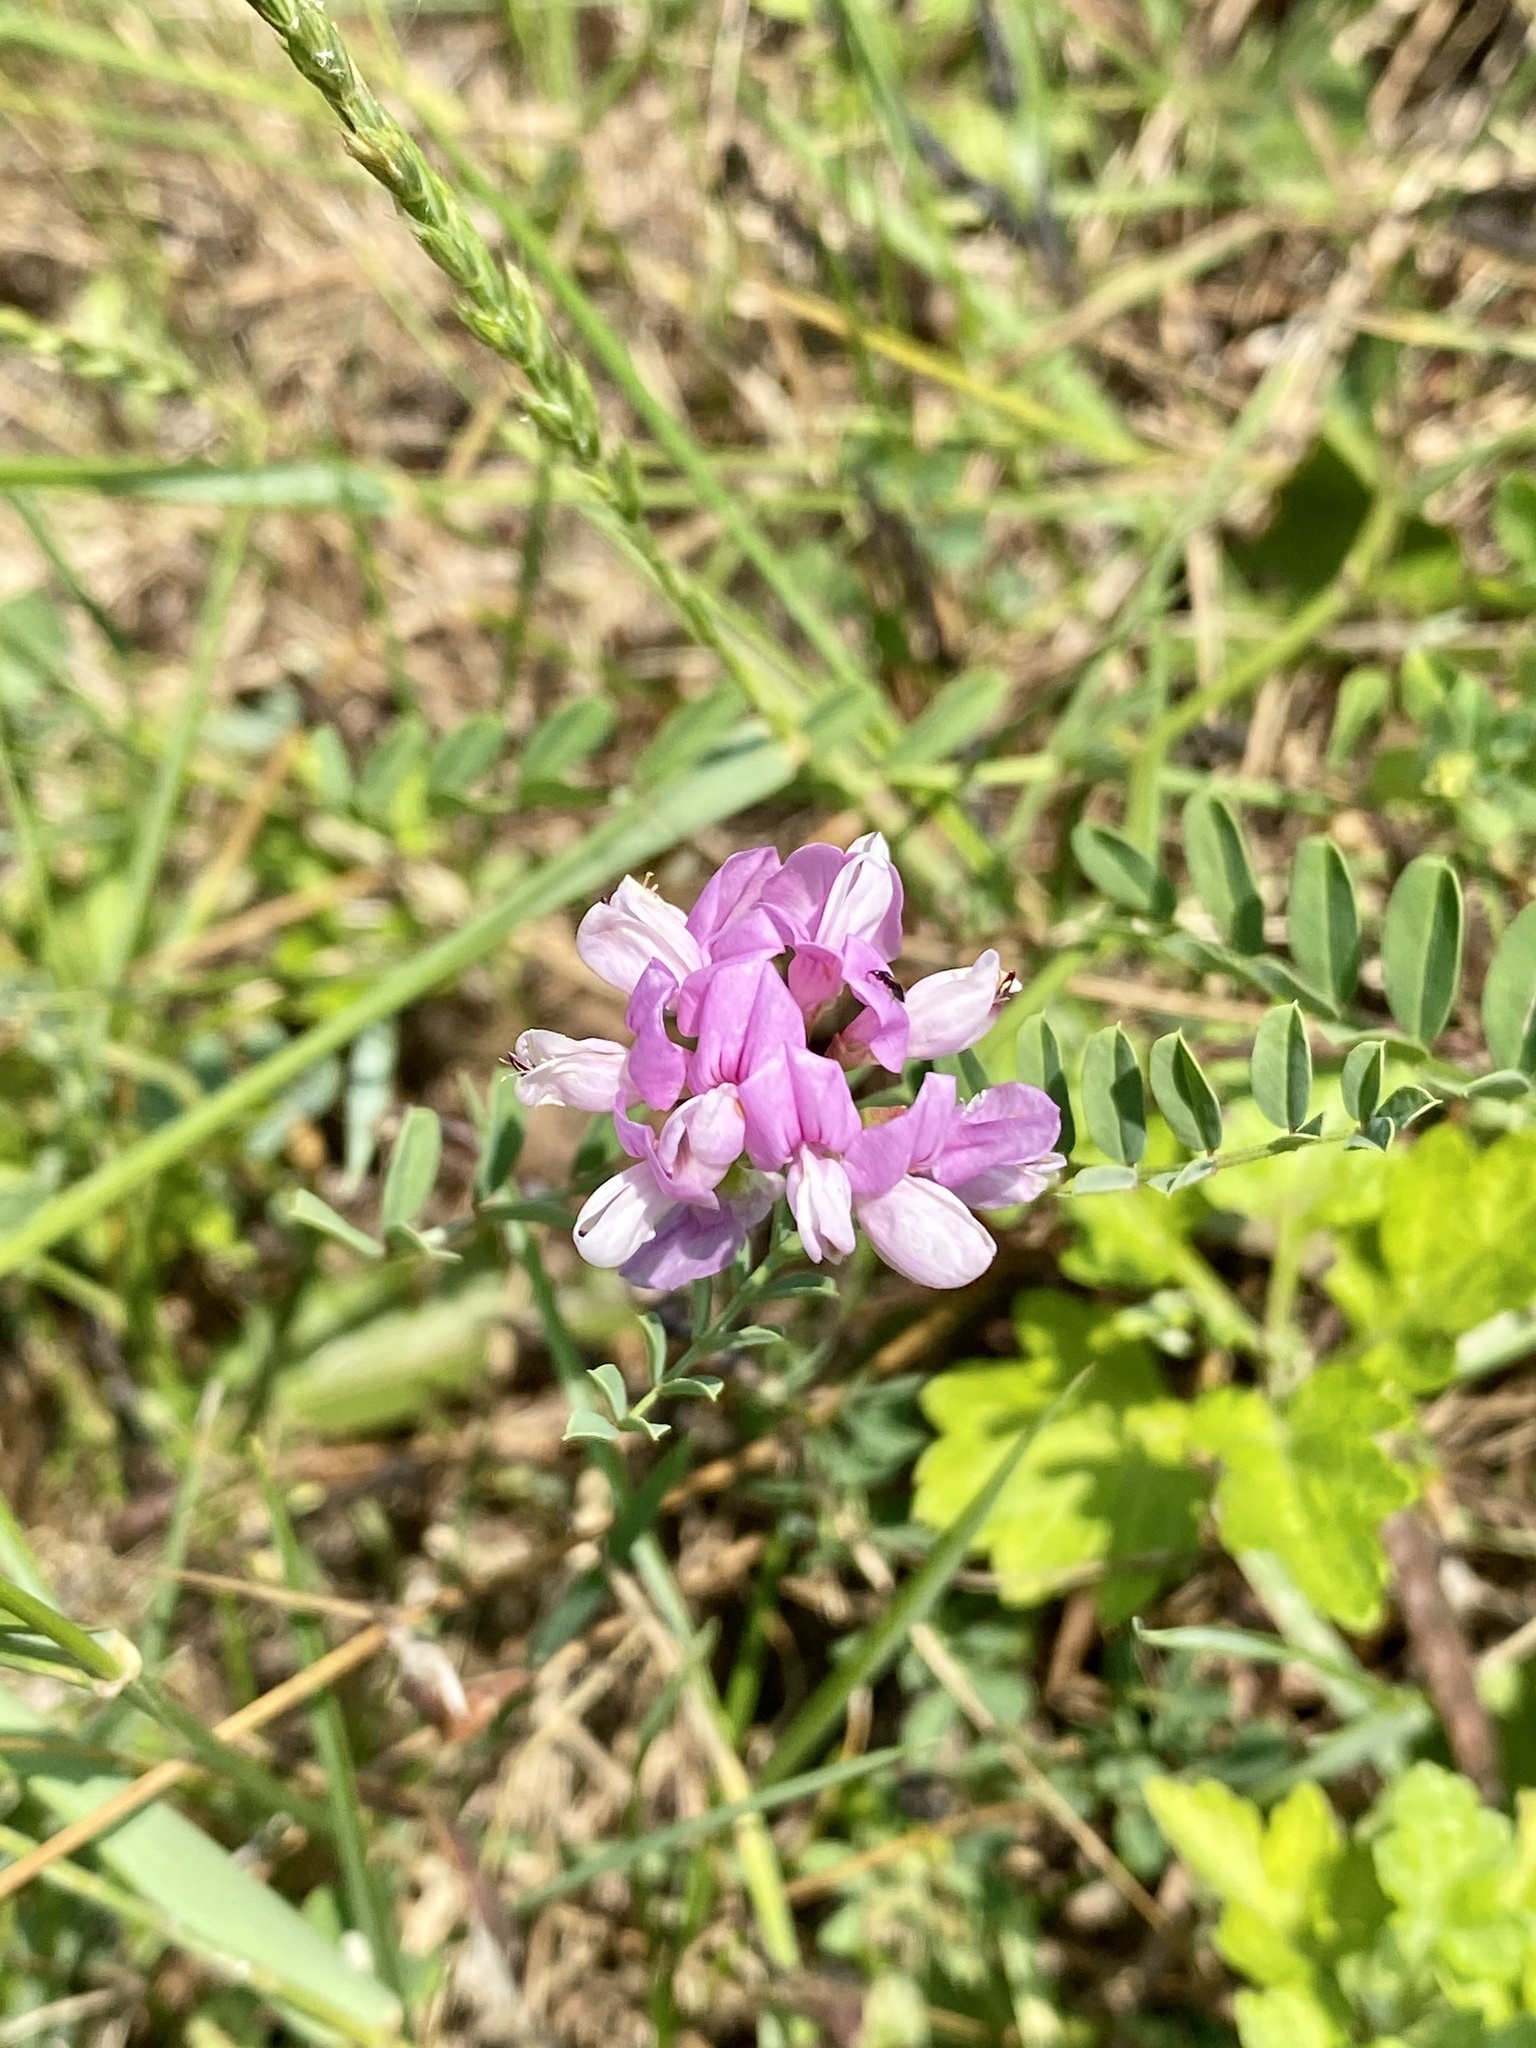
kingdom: Plantae
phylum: Tracheophyta
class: Magnoliopsida
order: Fabales
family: Fabaceae
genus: Coronilla
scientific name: Coronilla varia
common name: Crownvetch
